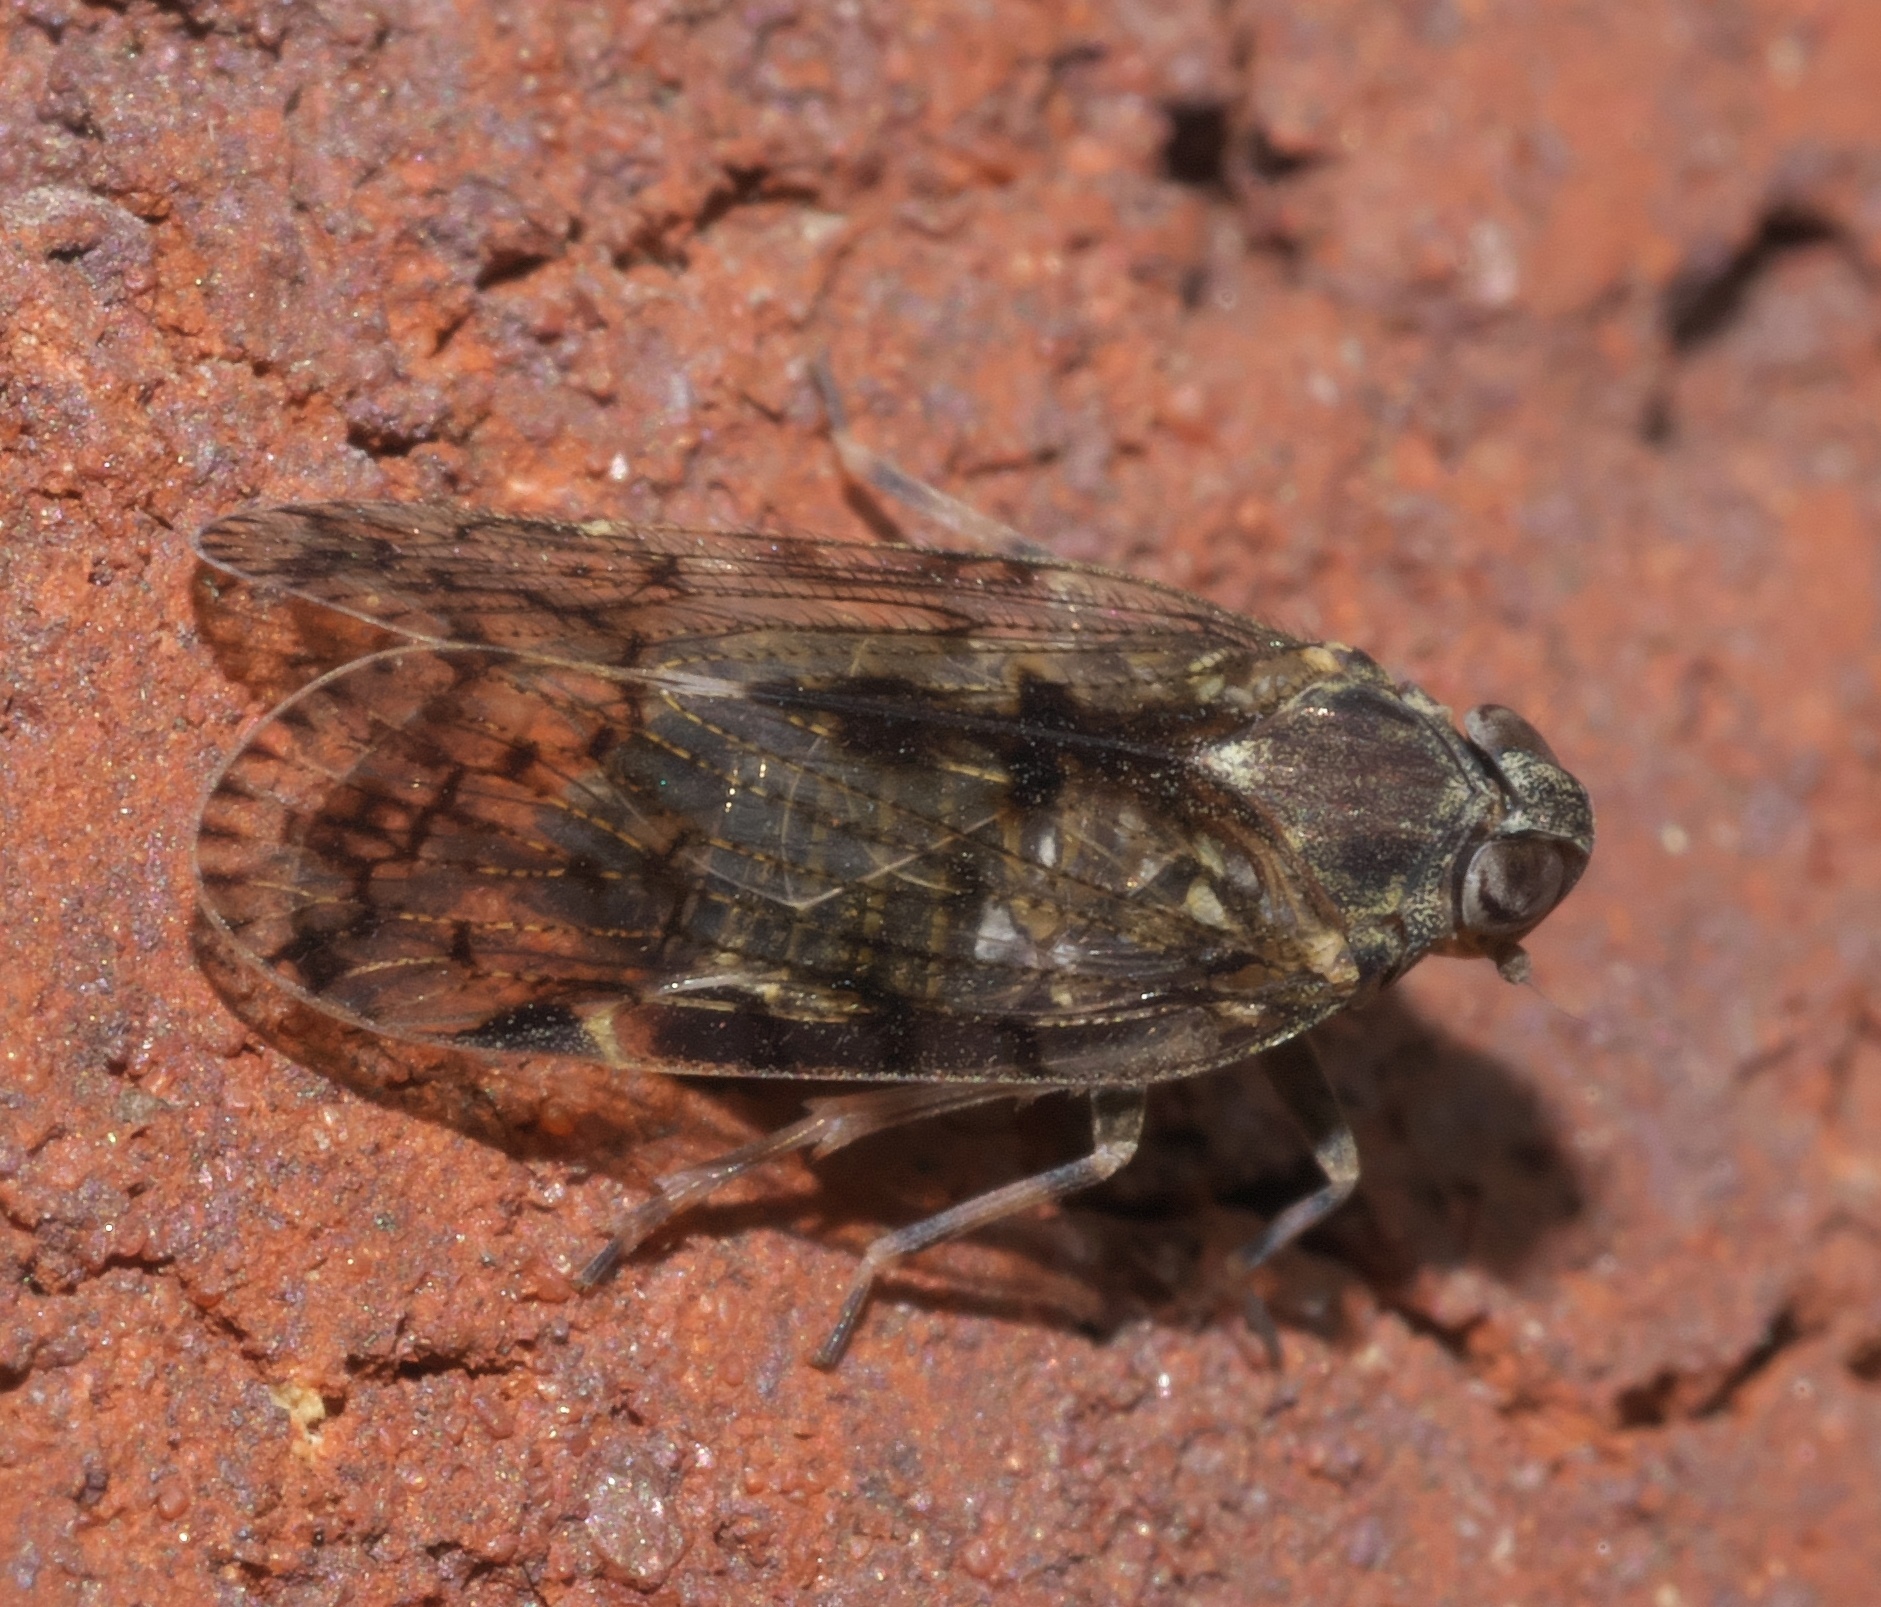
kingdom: Animalia
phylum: Arthropoda
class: Insecta
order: Hemiptera
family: Cixiidae
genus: Melanoliarus
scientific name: Melanoliarus placitus
